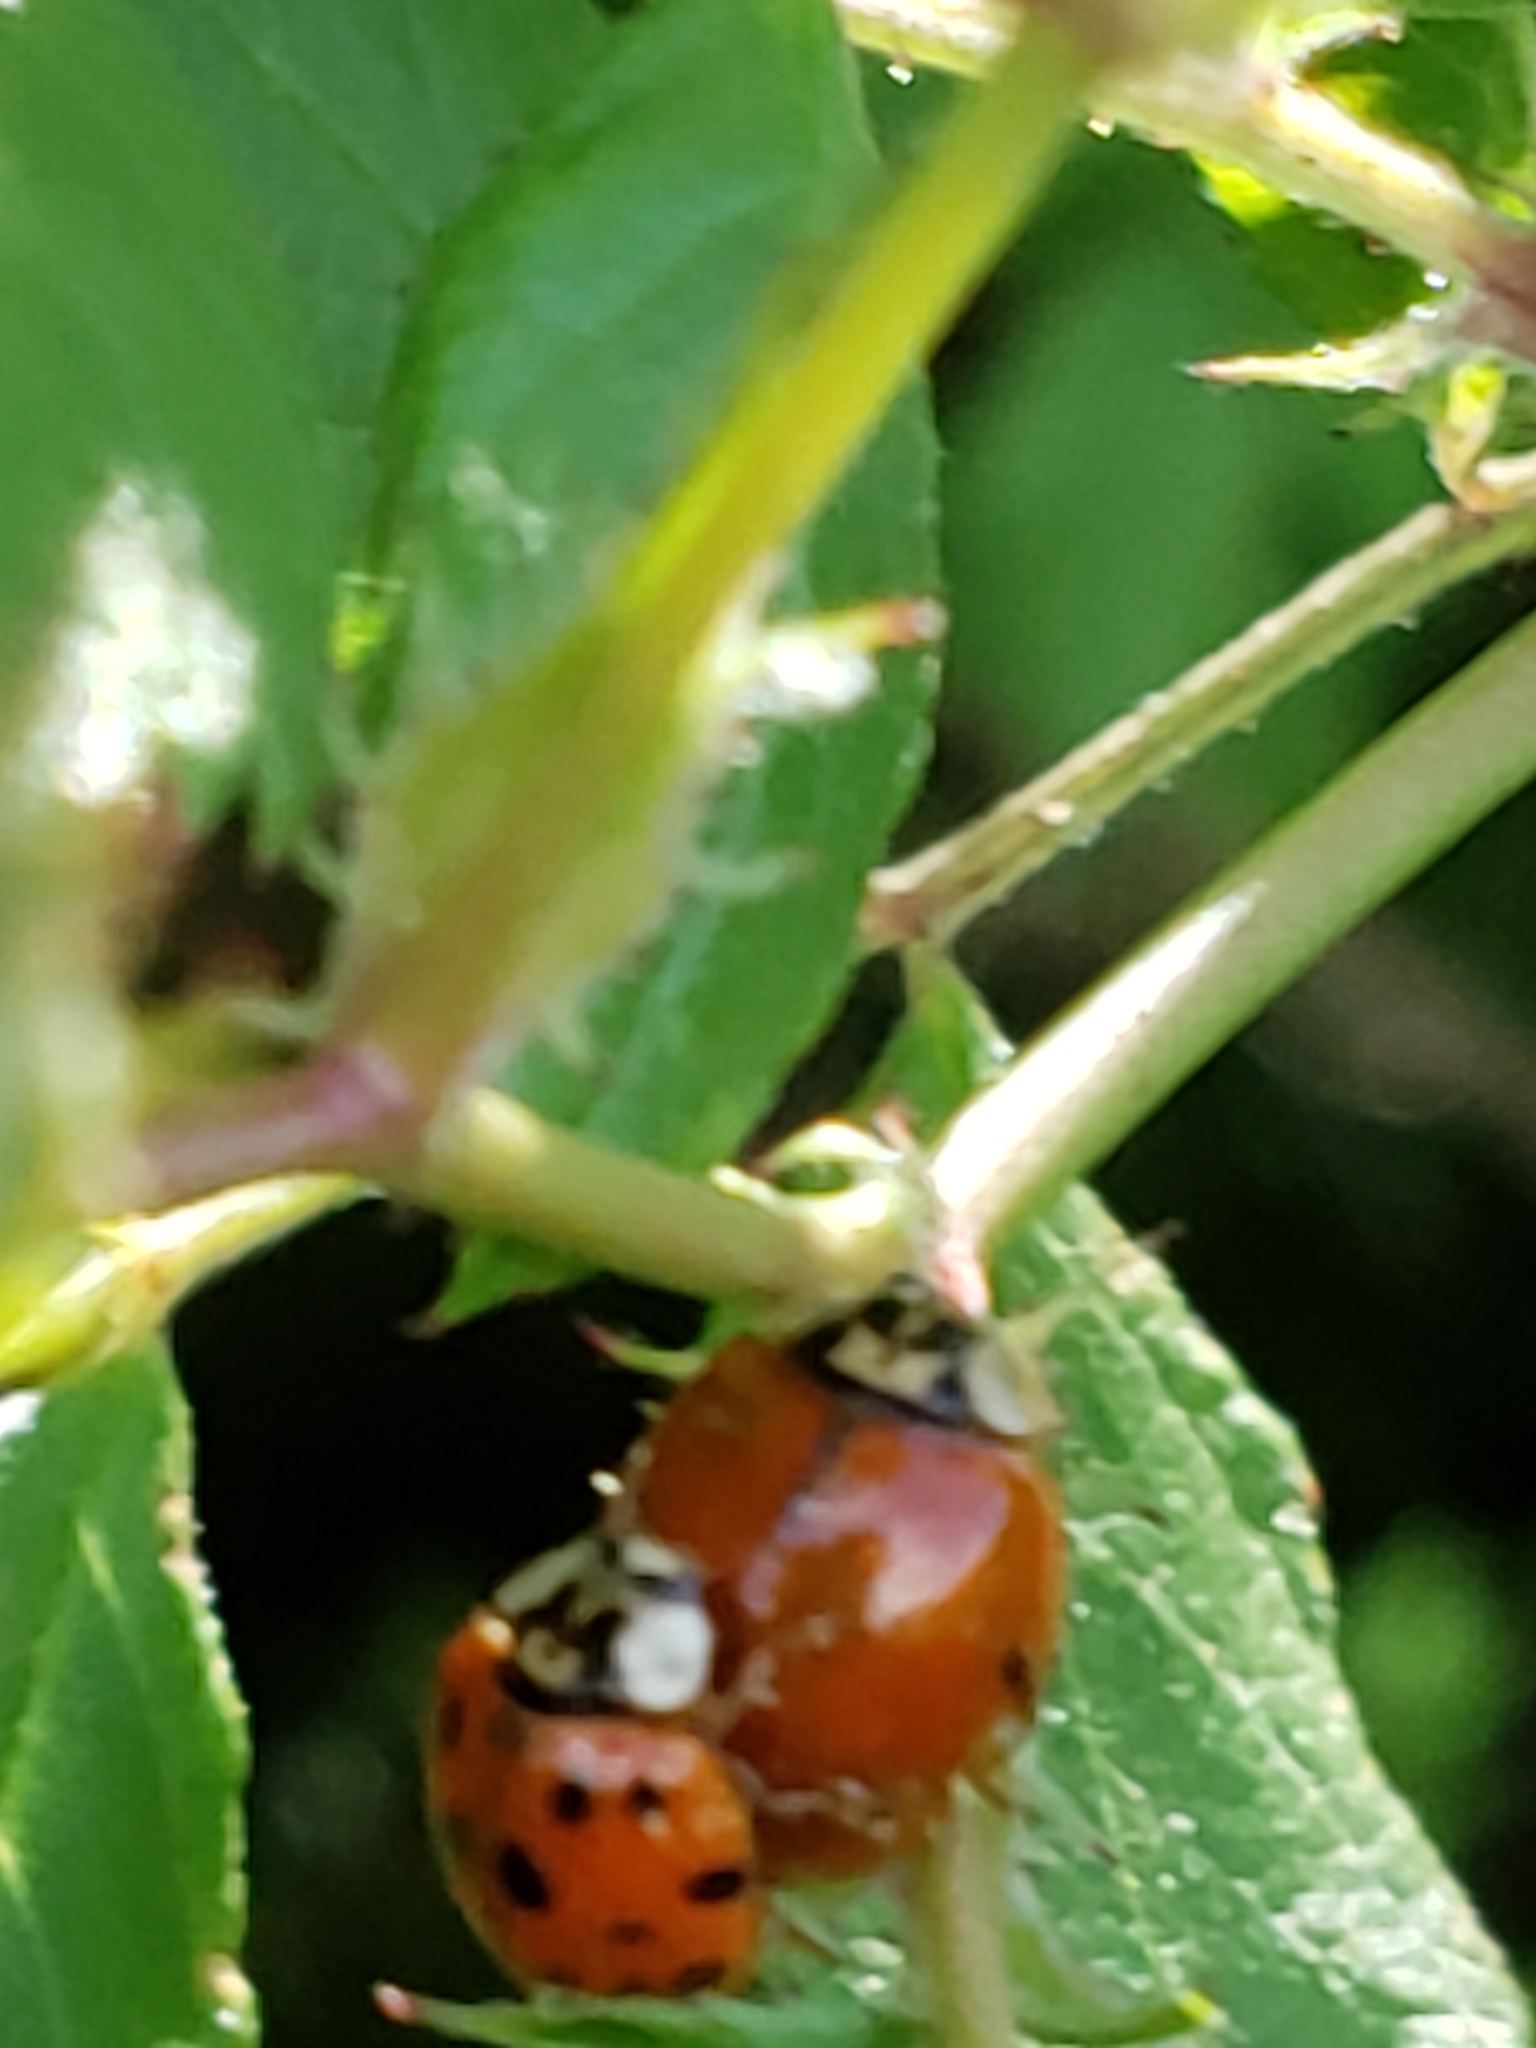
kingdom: Animalia
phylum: Arthropoda
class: Insecta
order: Coleoptera
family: Coccinellidae
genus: Harmonia
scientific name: Harmonia axyridis
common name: Harlequin ladybird
